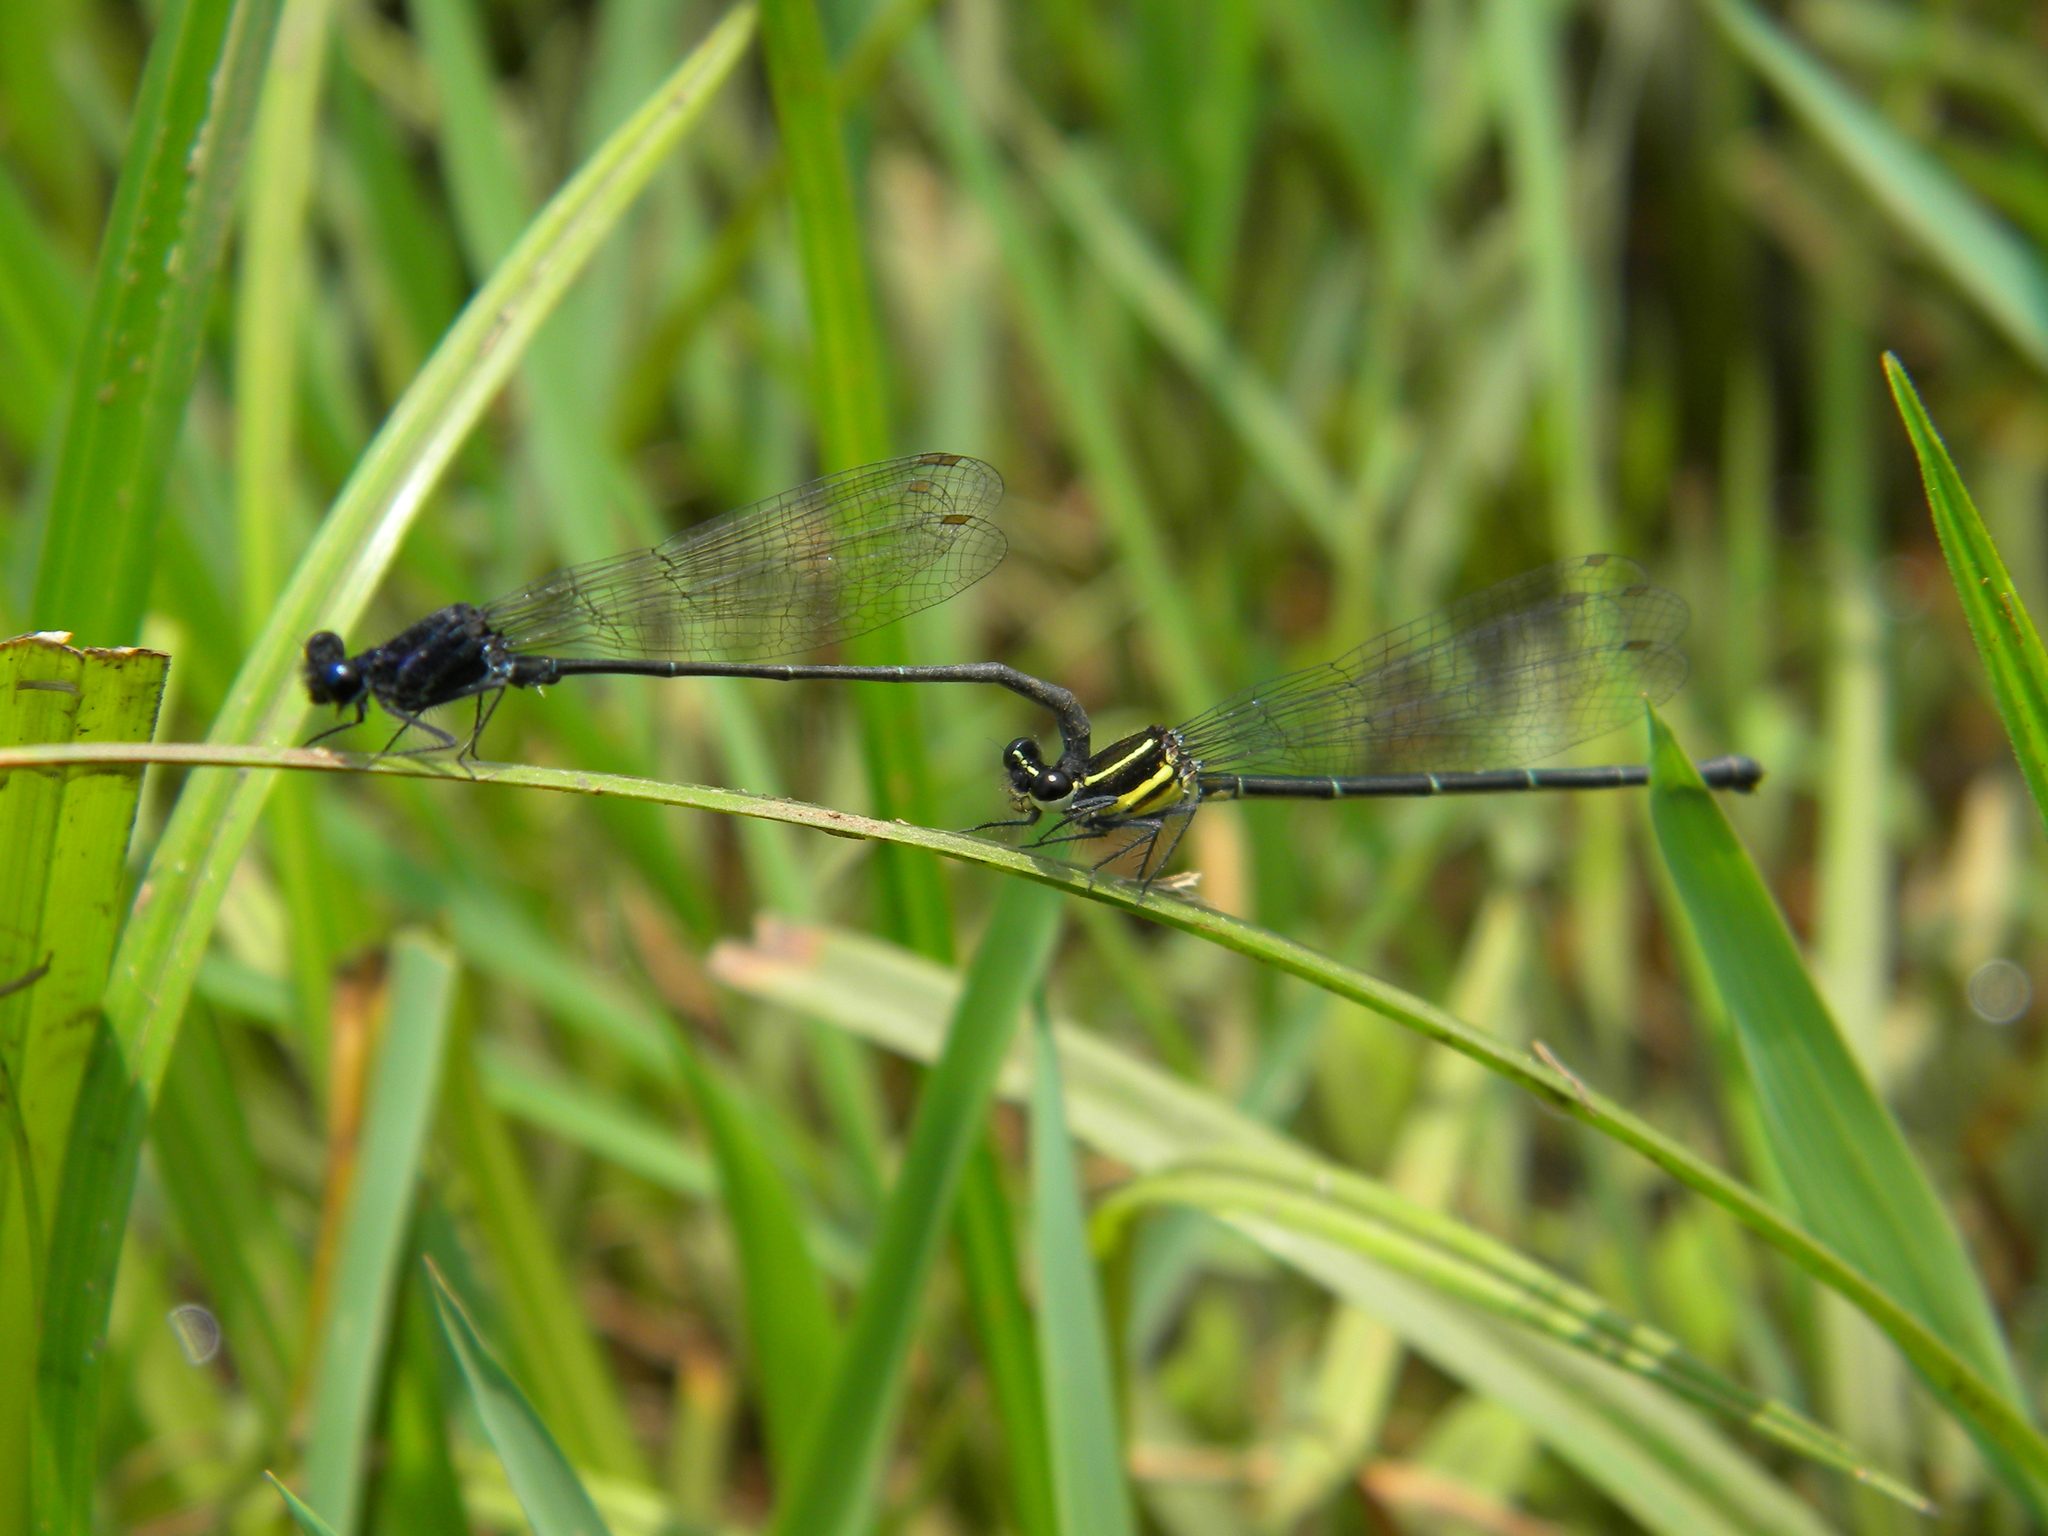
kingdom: Animalia
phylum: Arthropoda
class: Insecta
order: Odonata
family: Platycnemididae
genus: Onychargia
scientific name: Onychargia atrocyana
